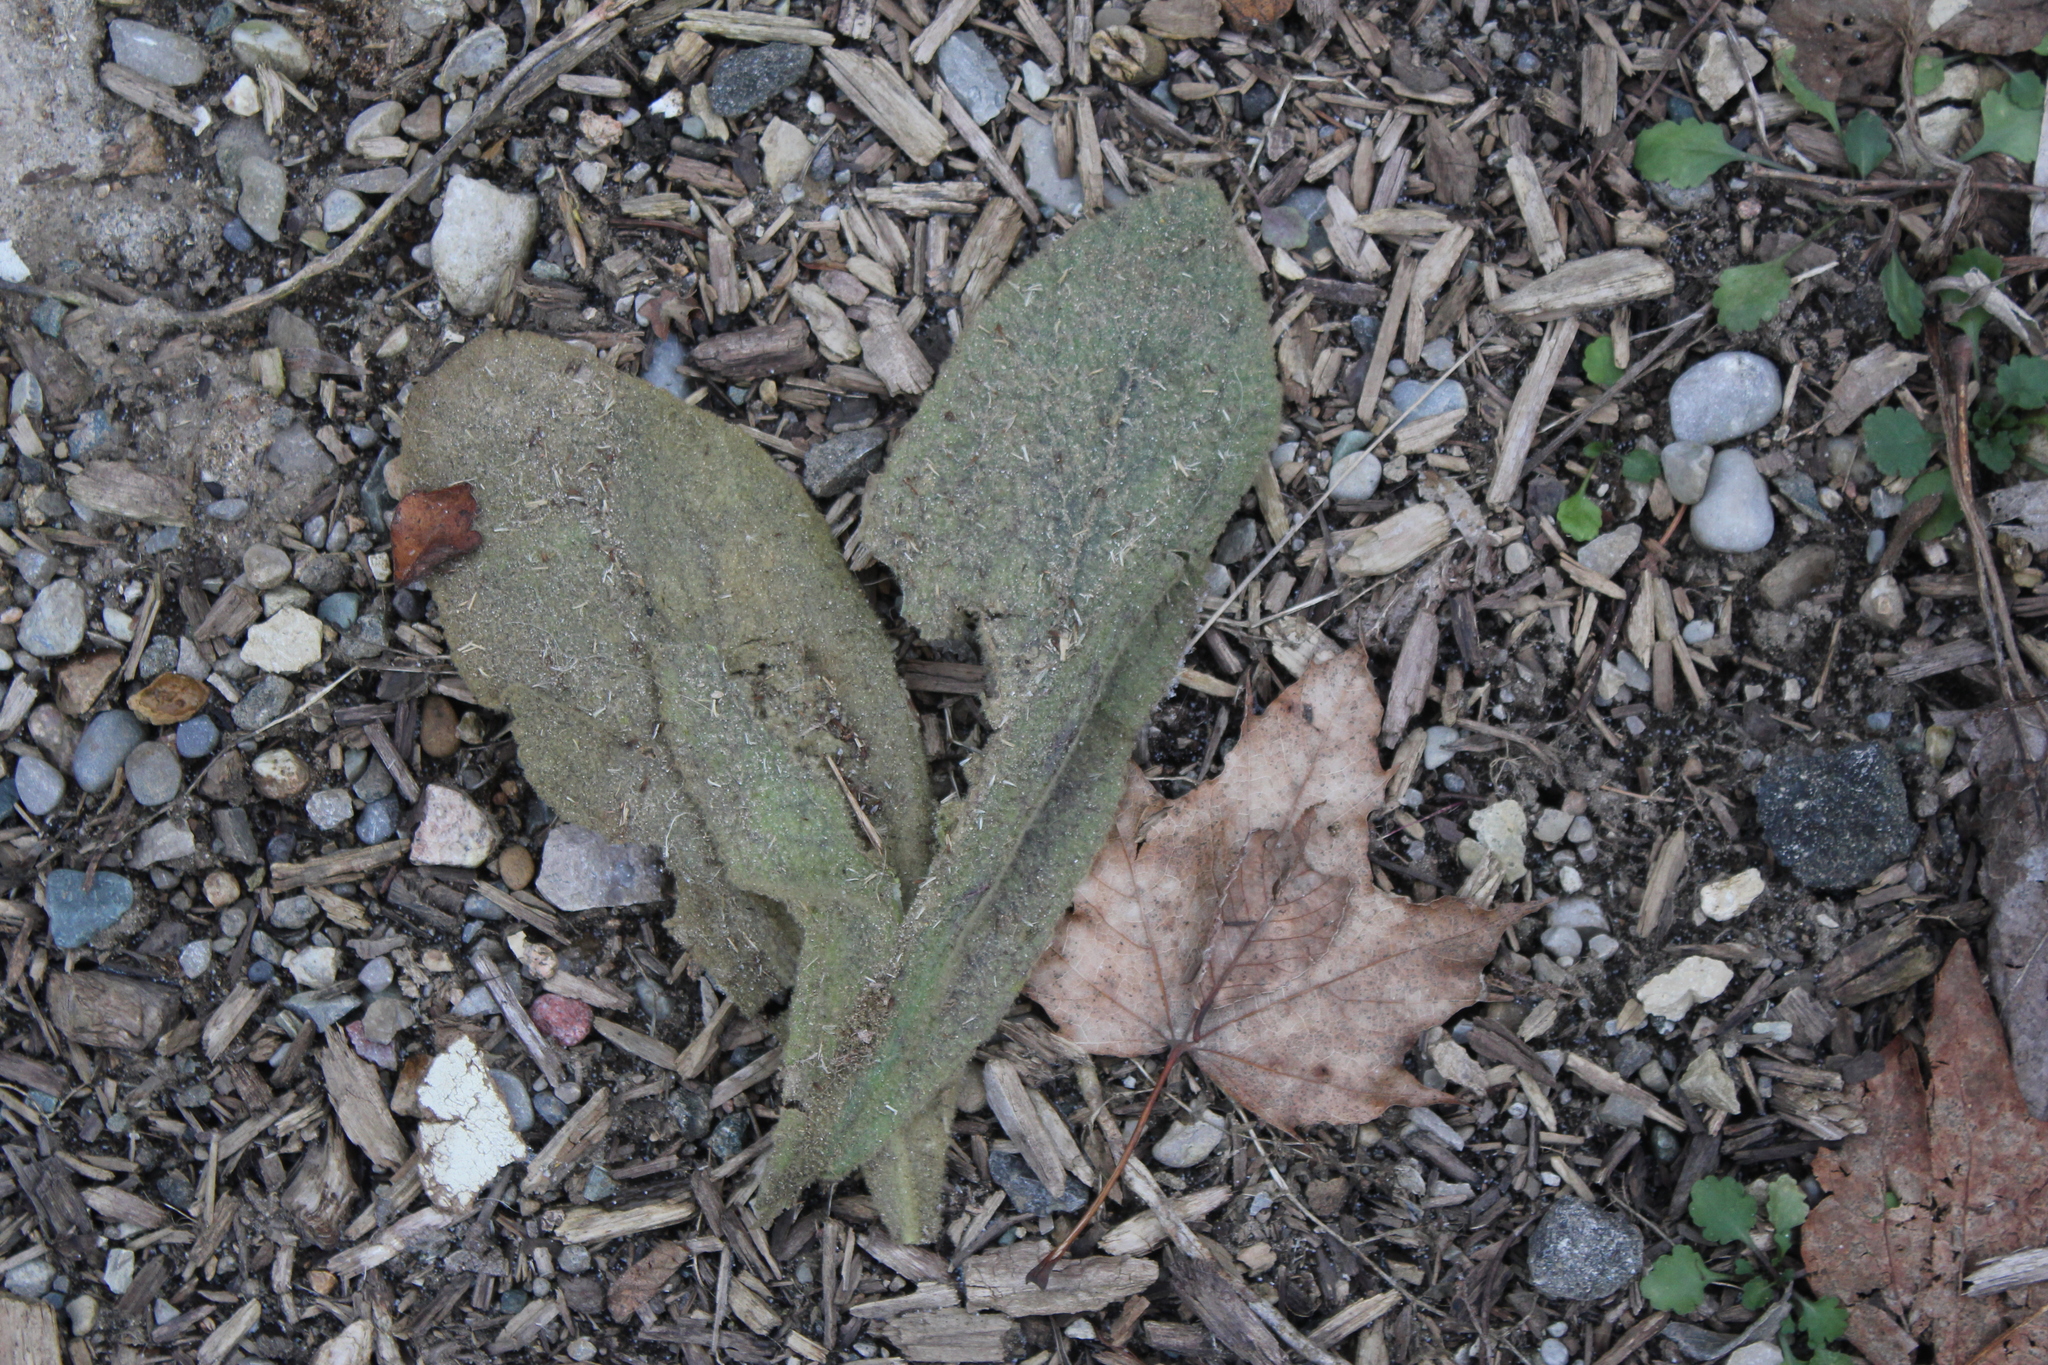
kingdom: Plantae
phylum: Tracheophyta
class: Magnoliopsida
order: Lamiales
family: Scrophulariaceae
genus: Verbascum
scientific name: Verbascum thapsus
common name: Common mullein
